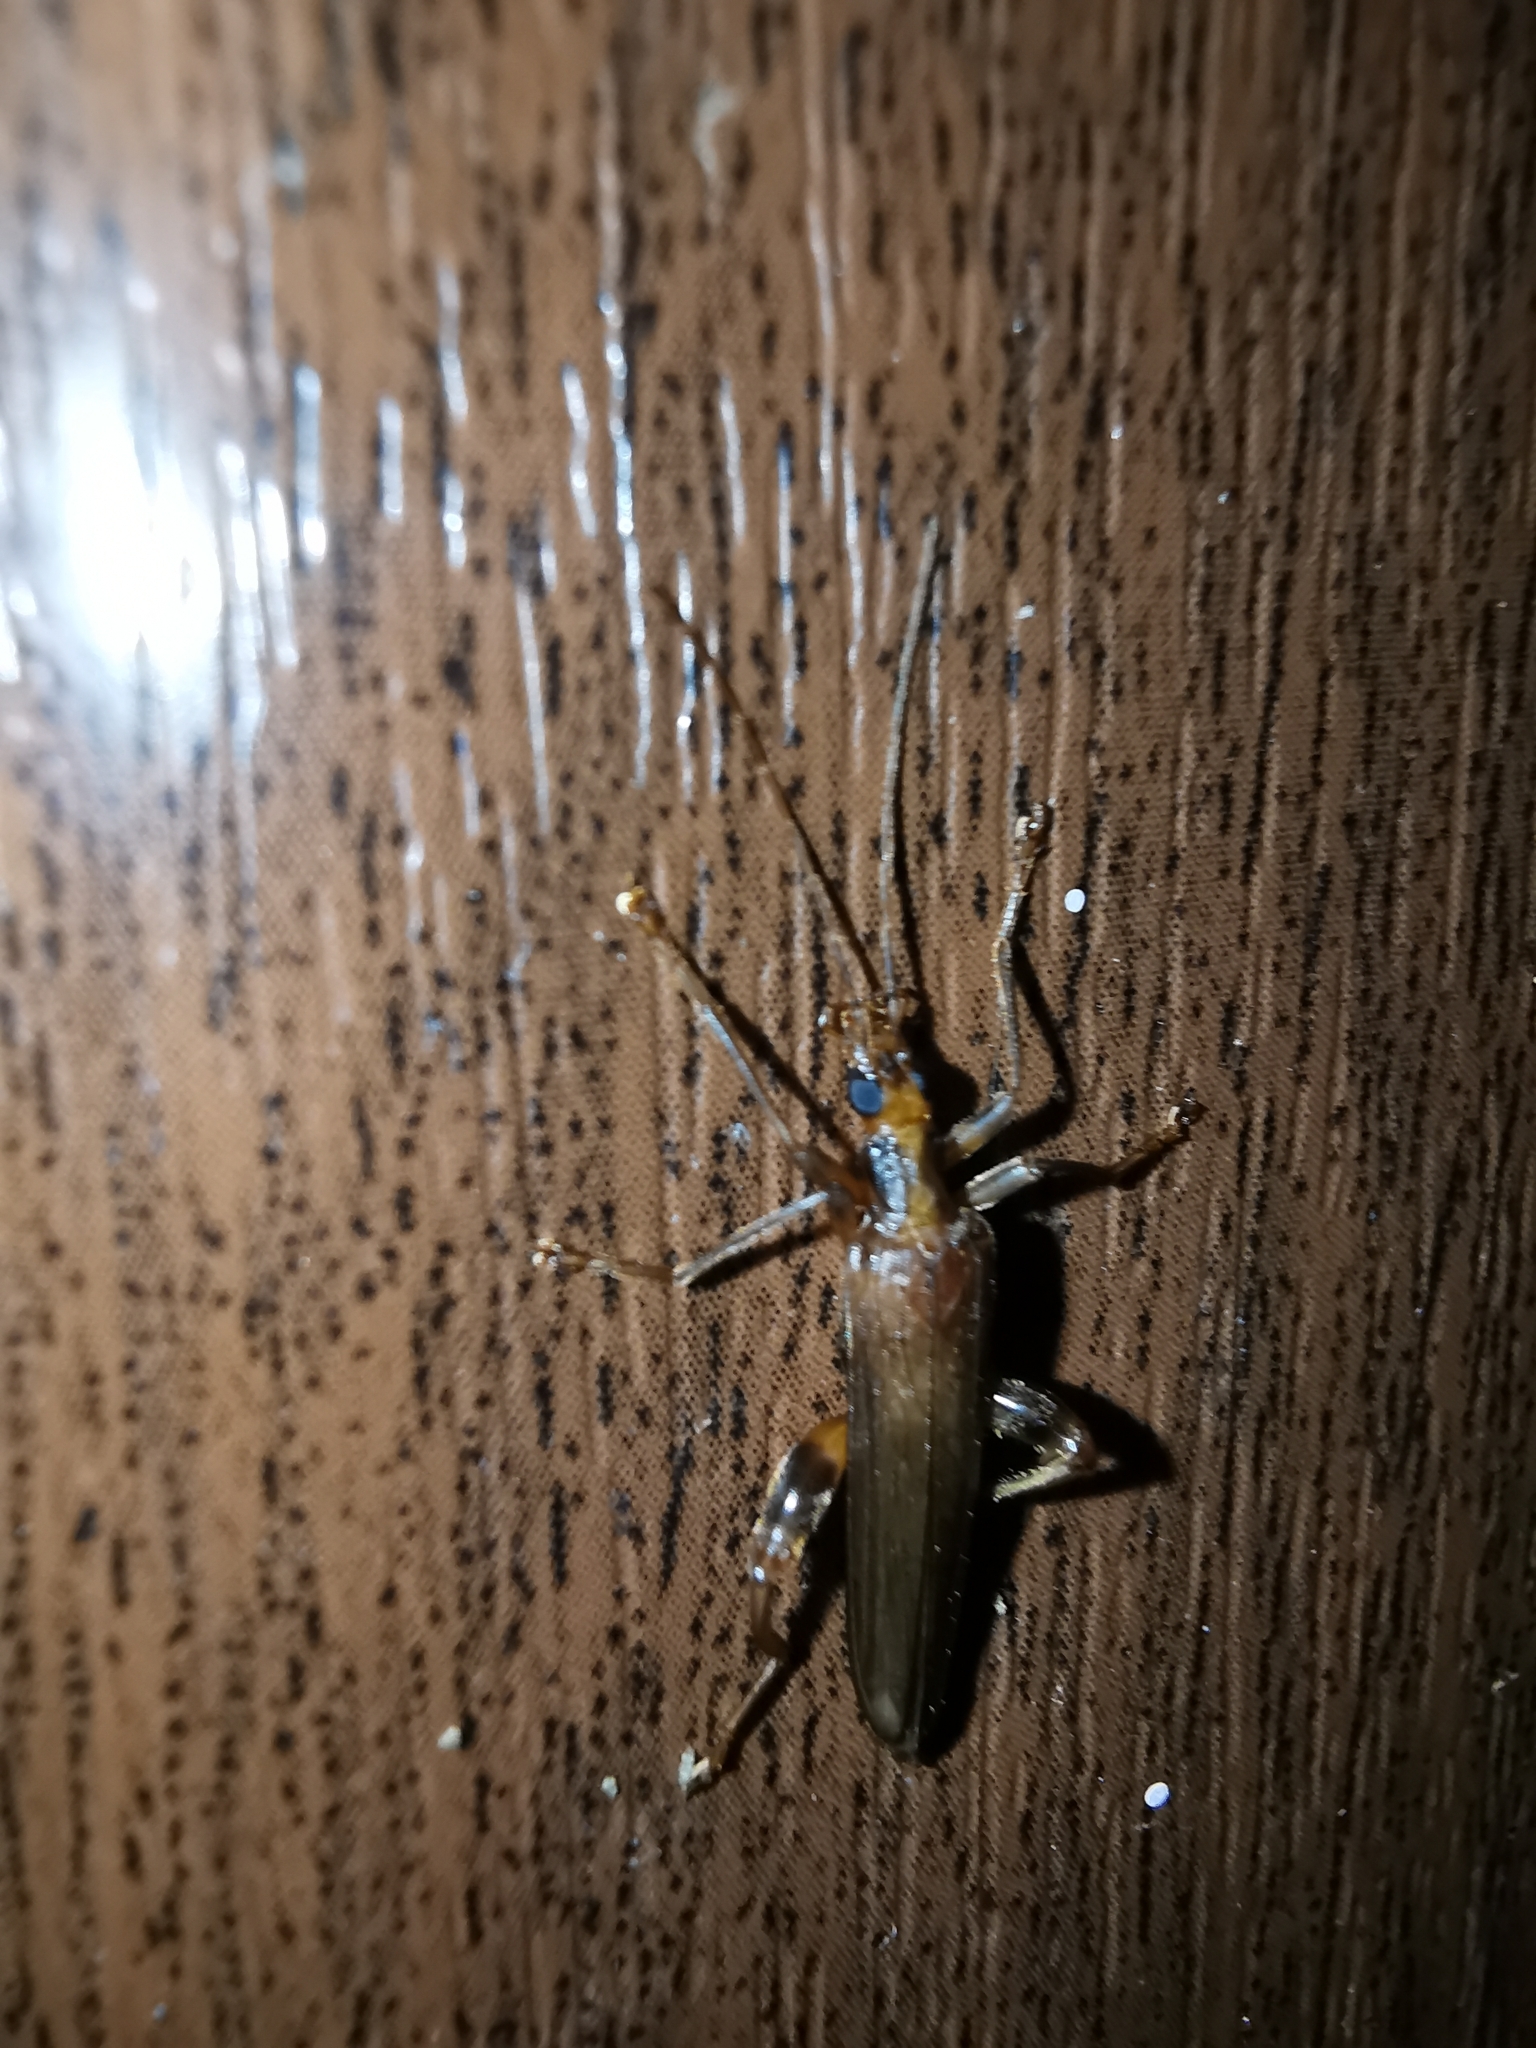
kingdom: Animalia
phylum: Arthropoda
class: Insecta
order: Coleoptera
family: Oedemeridae
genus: Oedemera
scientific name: Oedemera femoralis
